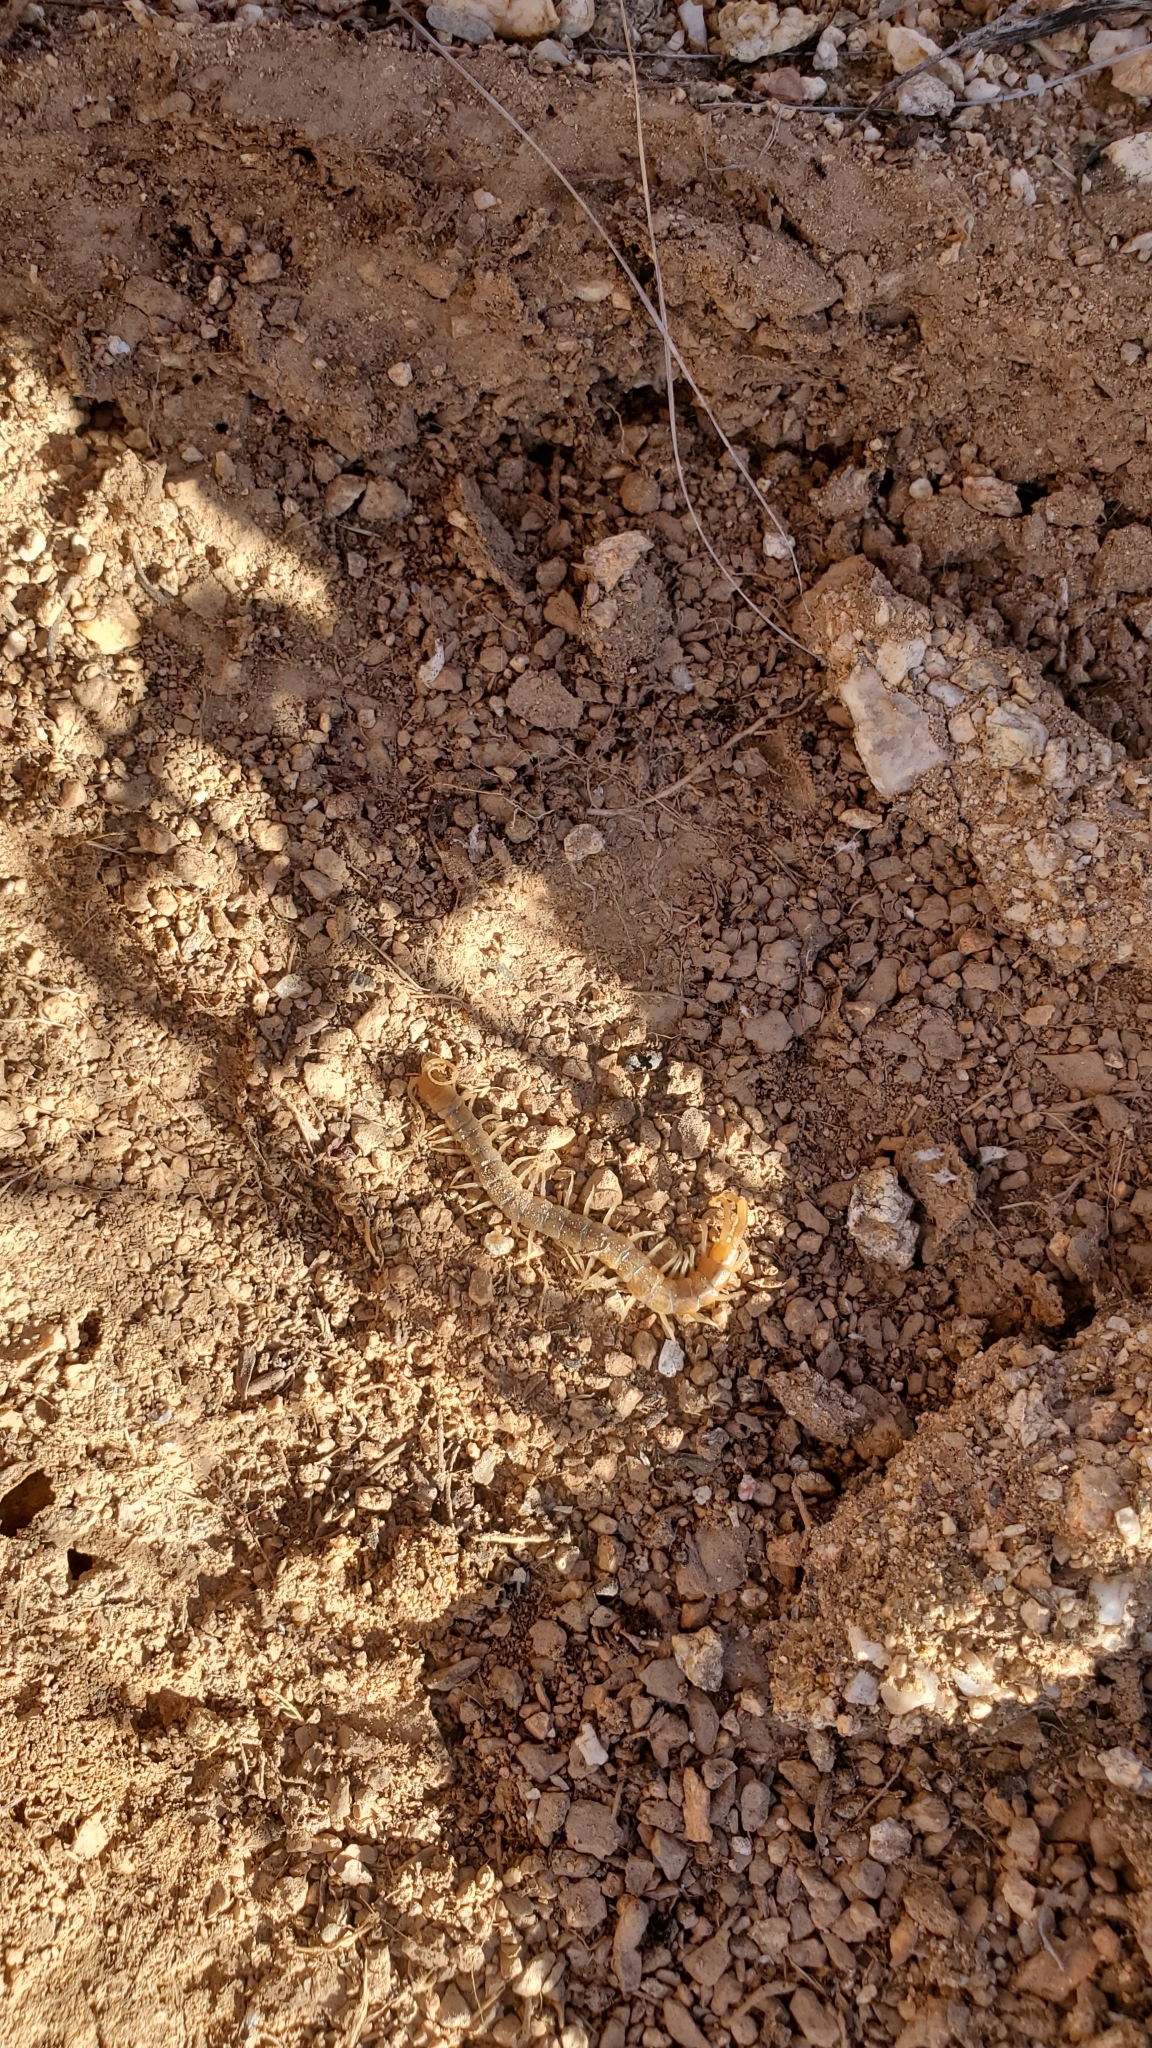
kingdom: Animalia
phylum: Arthropoda
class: Chilopoda
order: Scolopendromorpha
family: Scolopendridae
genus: Scolopendra
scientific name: Scolopendra polymorpha
